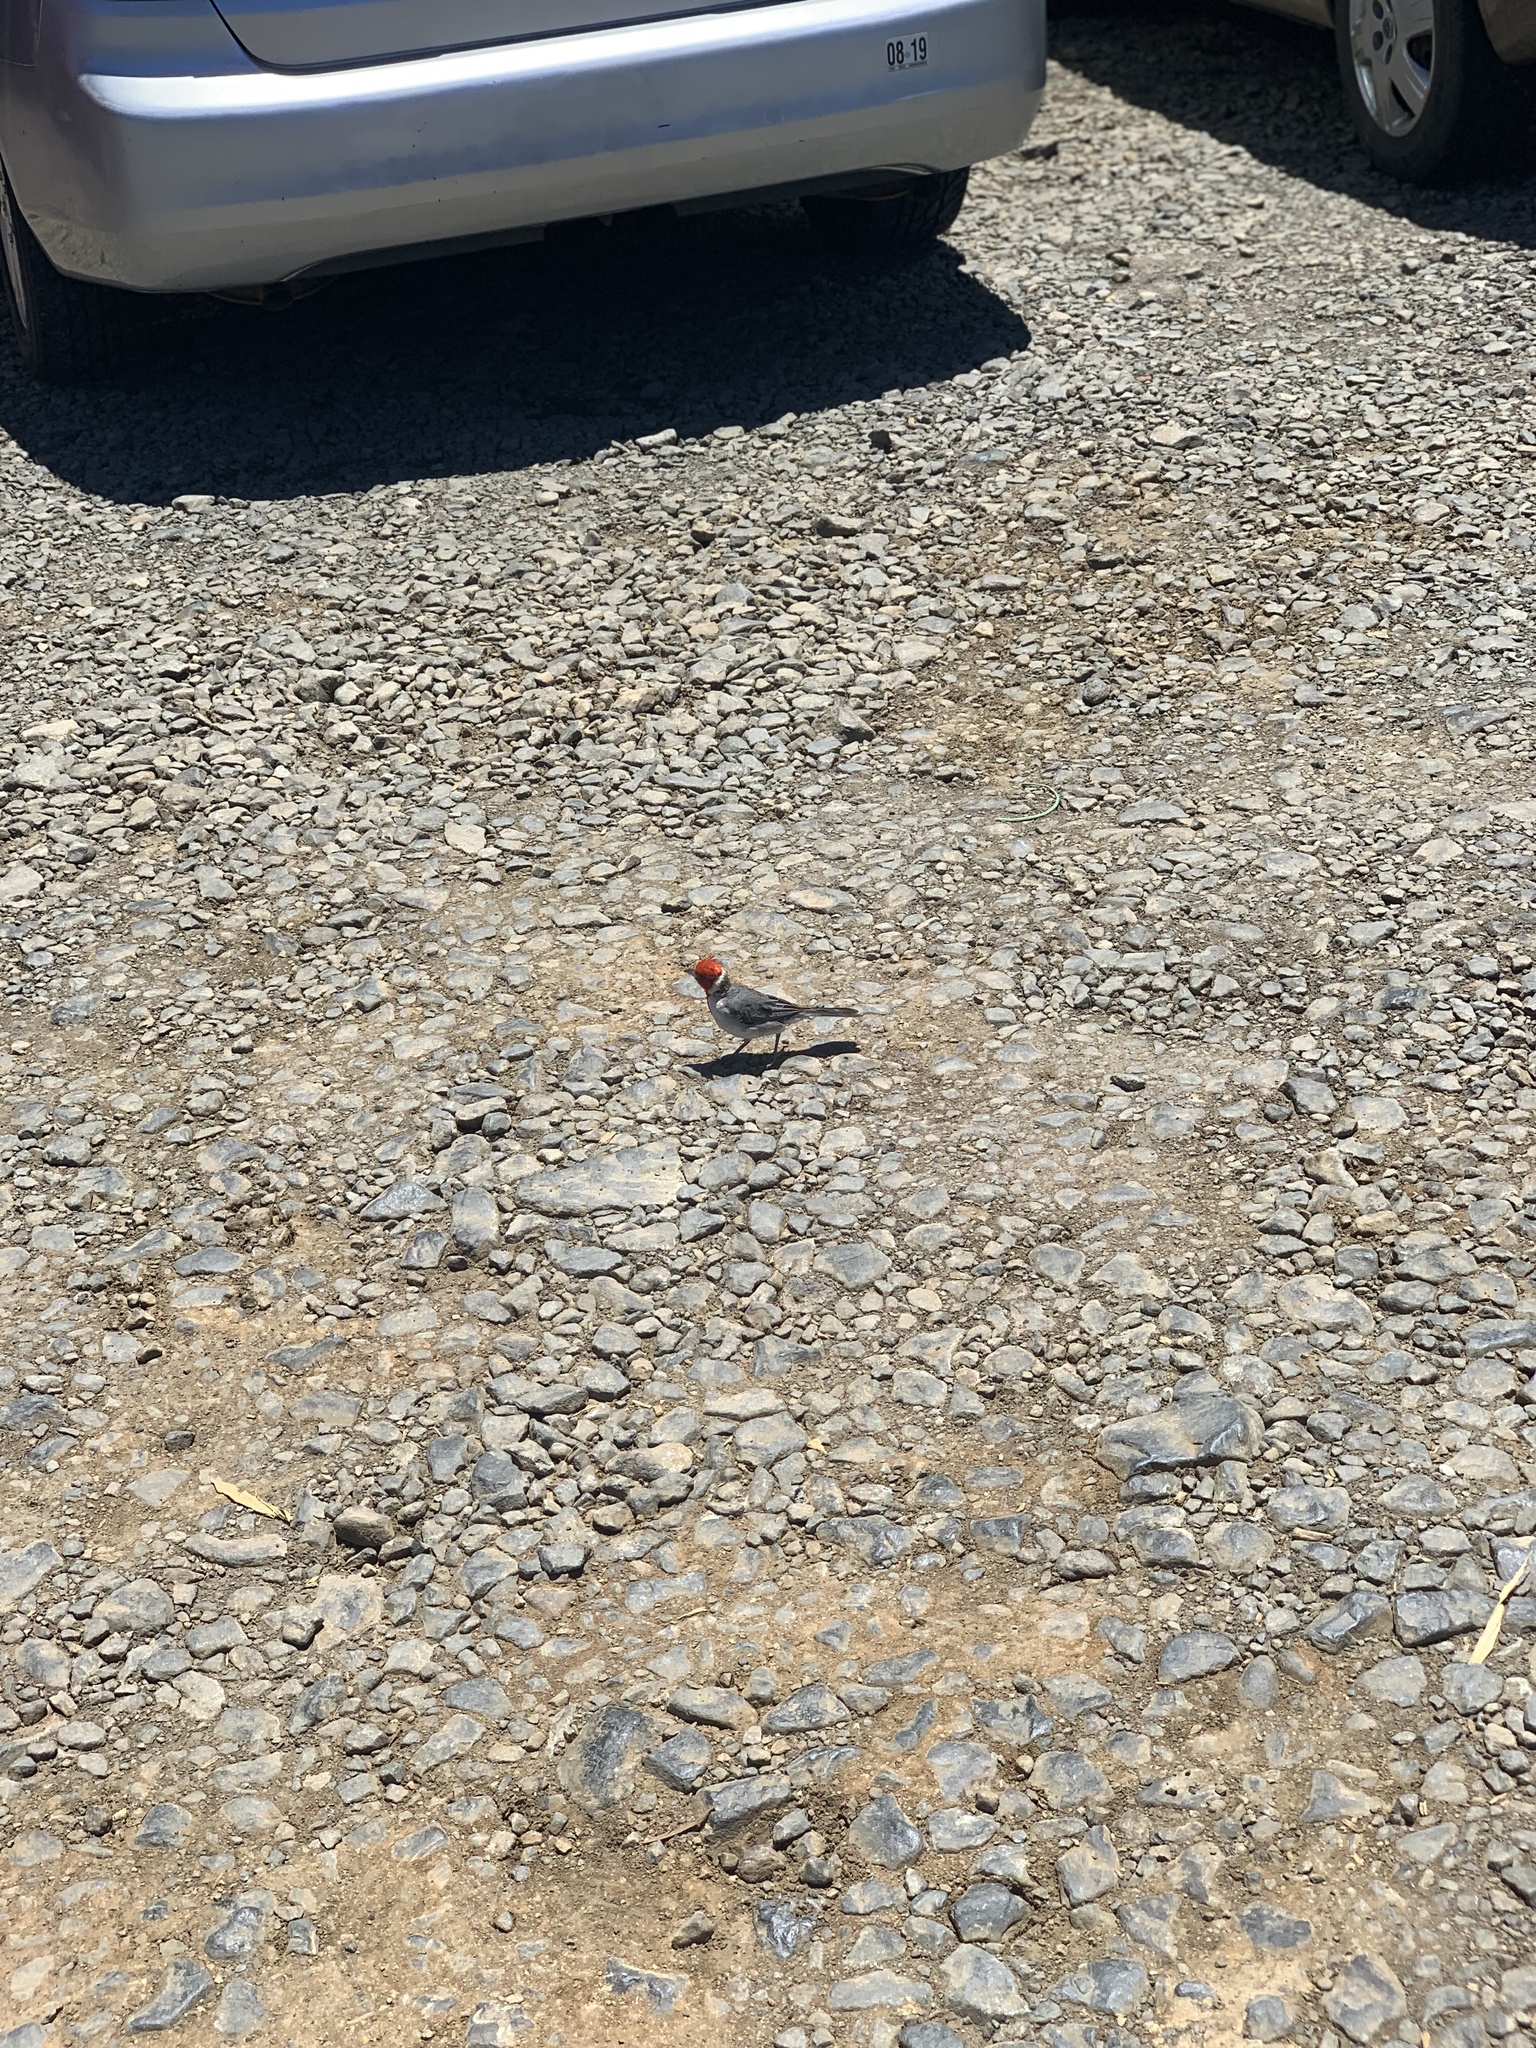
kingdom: Animalia
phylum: Chordata
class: Aves
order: Passeriformes
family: Thraupidae
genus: Paroaria
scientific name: Paroaria coronata
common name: Red-crested cardinal
